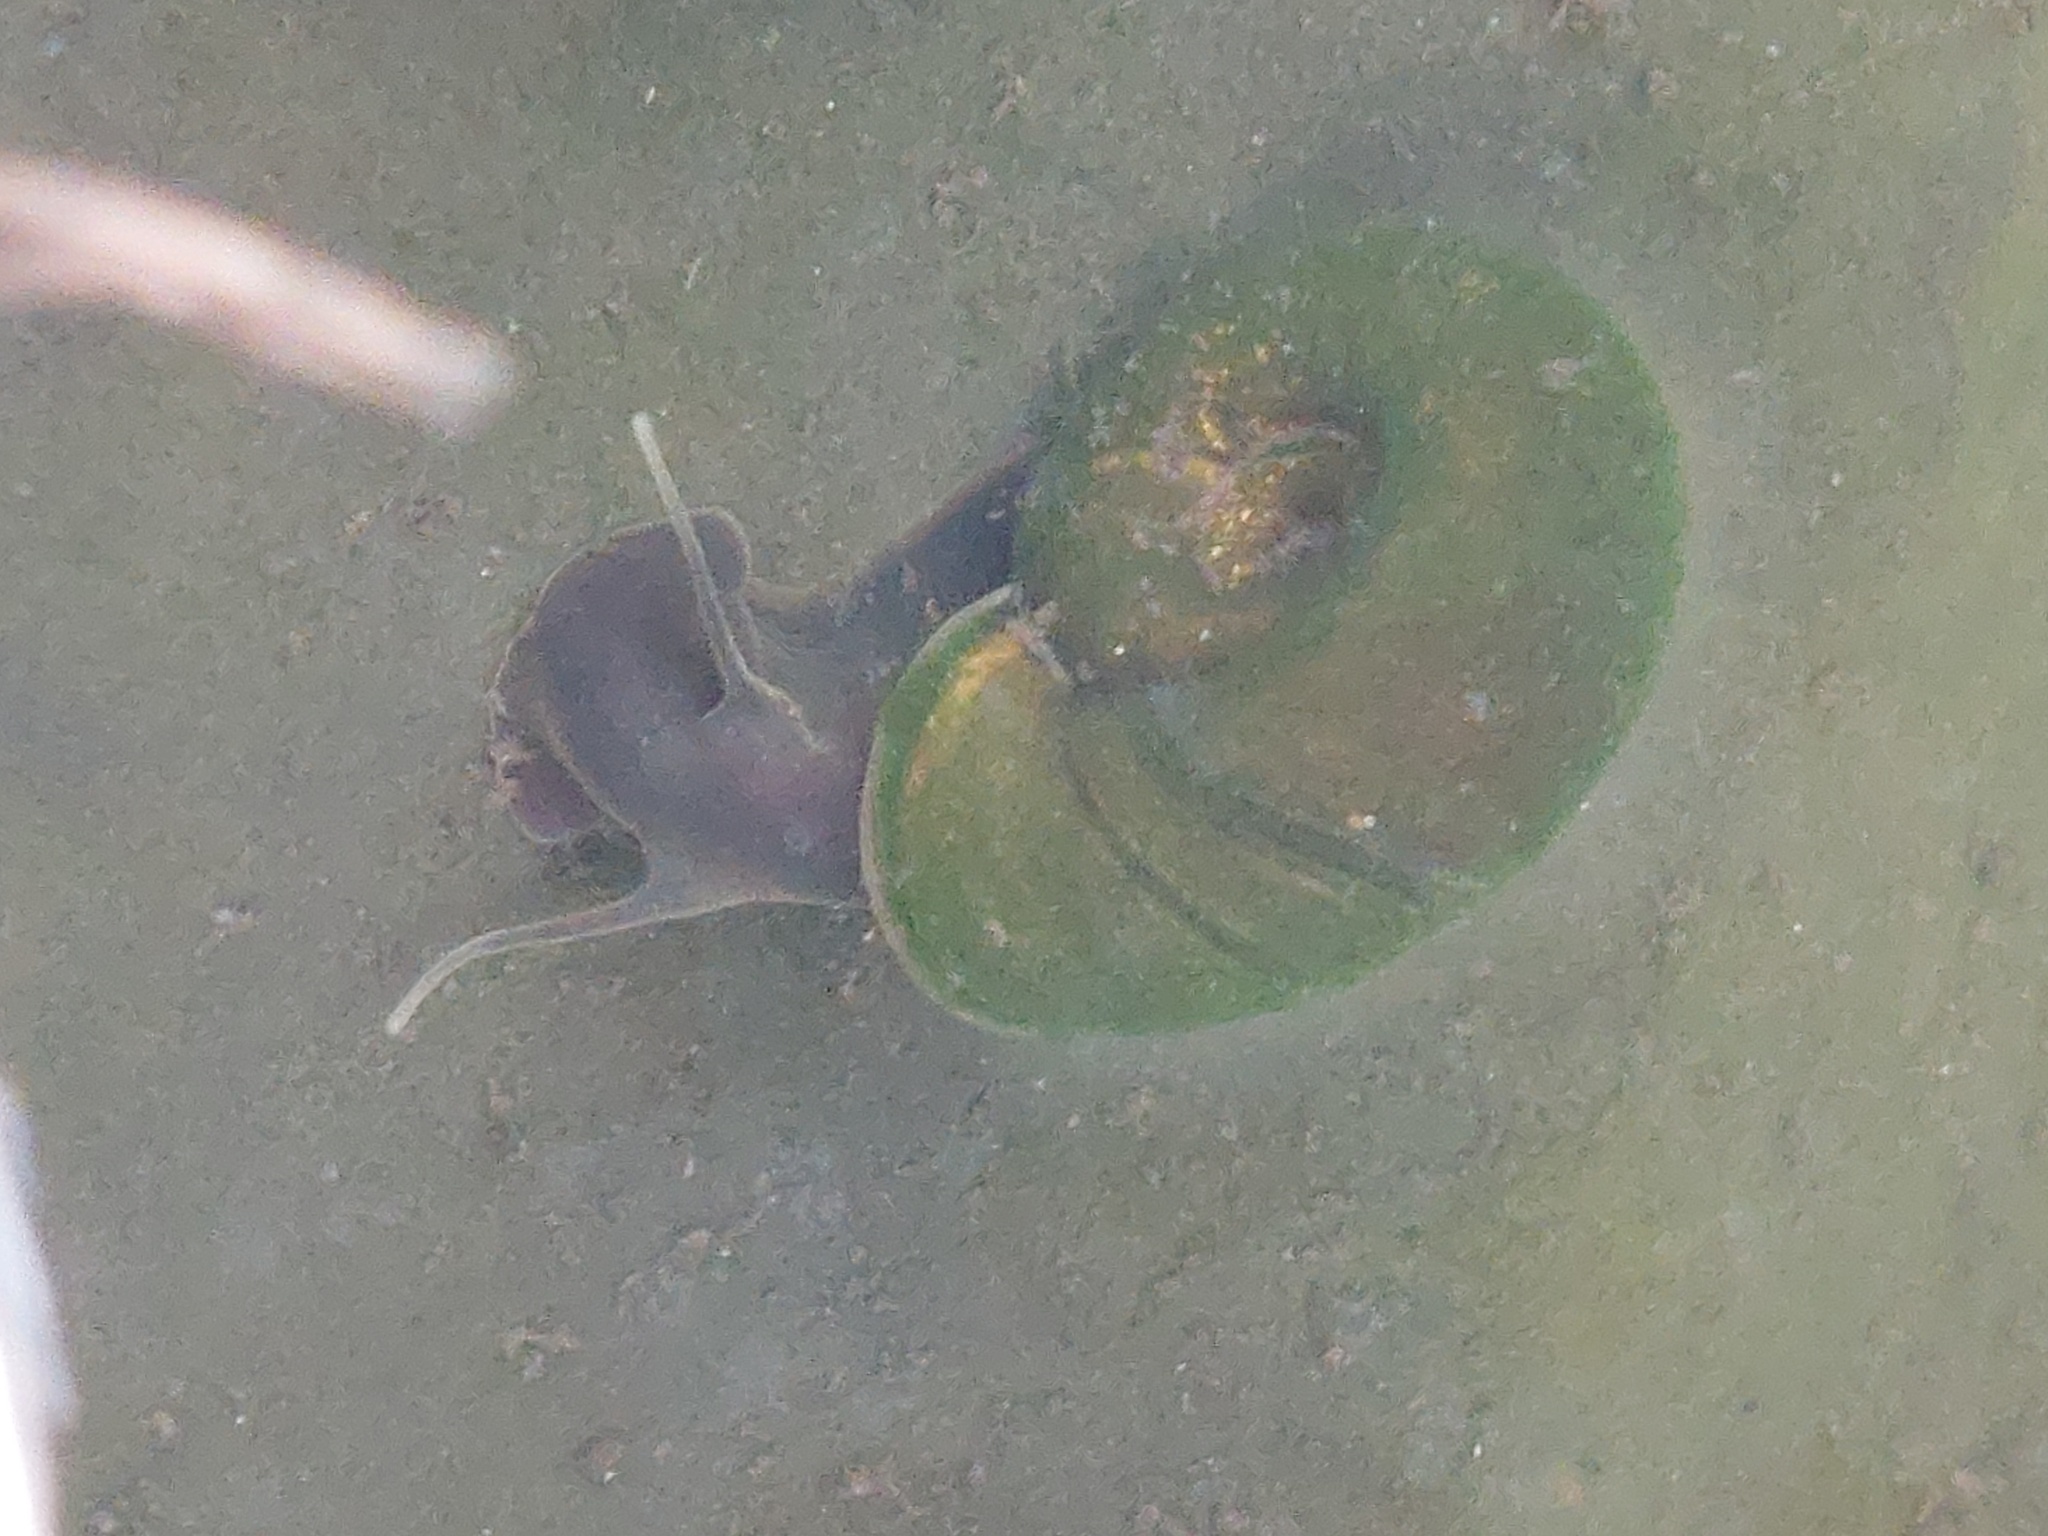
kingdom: Animalia
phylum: Mollusca
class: Gastropoda
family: Planorbidae
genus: Planorbarius
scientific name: Planorbarius corneus
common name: Great ramshorn
